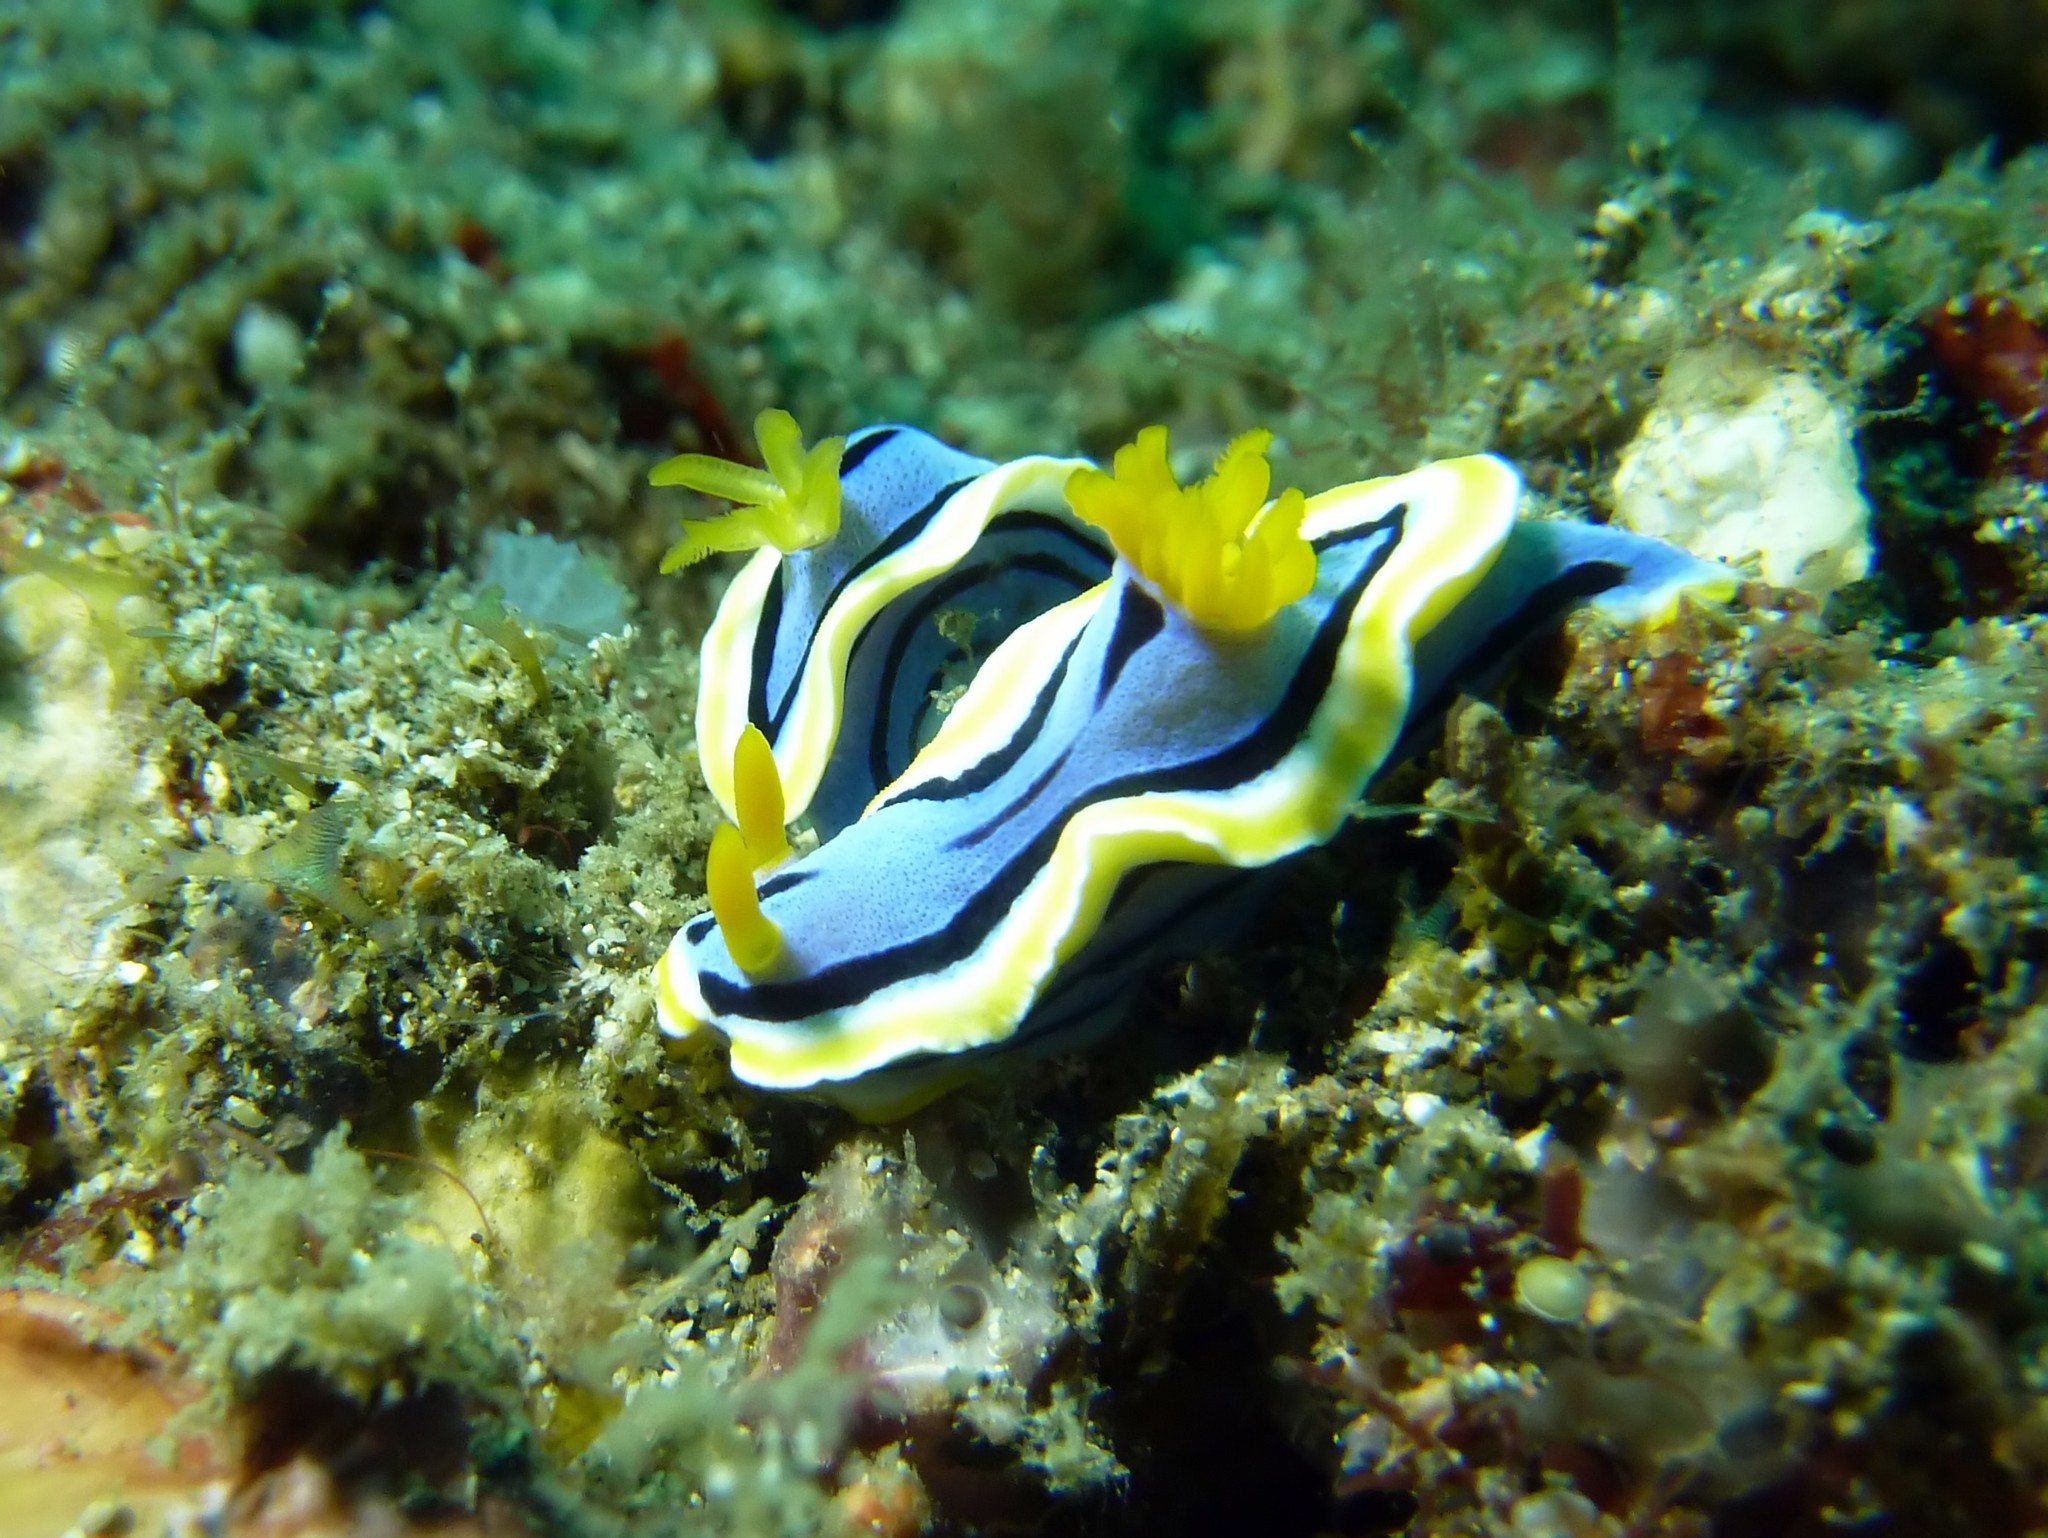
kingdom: Animalia
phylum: Mollusca
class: Gastropoda
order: Nudibranchia
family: Chromodorididae
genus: Chromodoris
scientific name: Chromodoris annae
